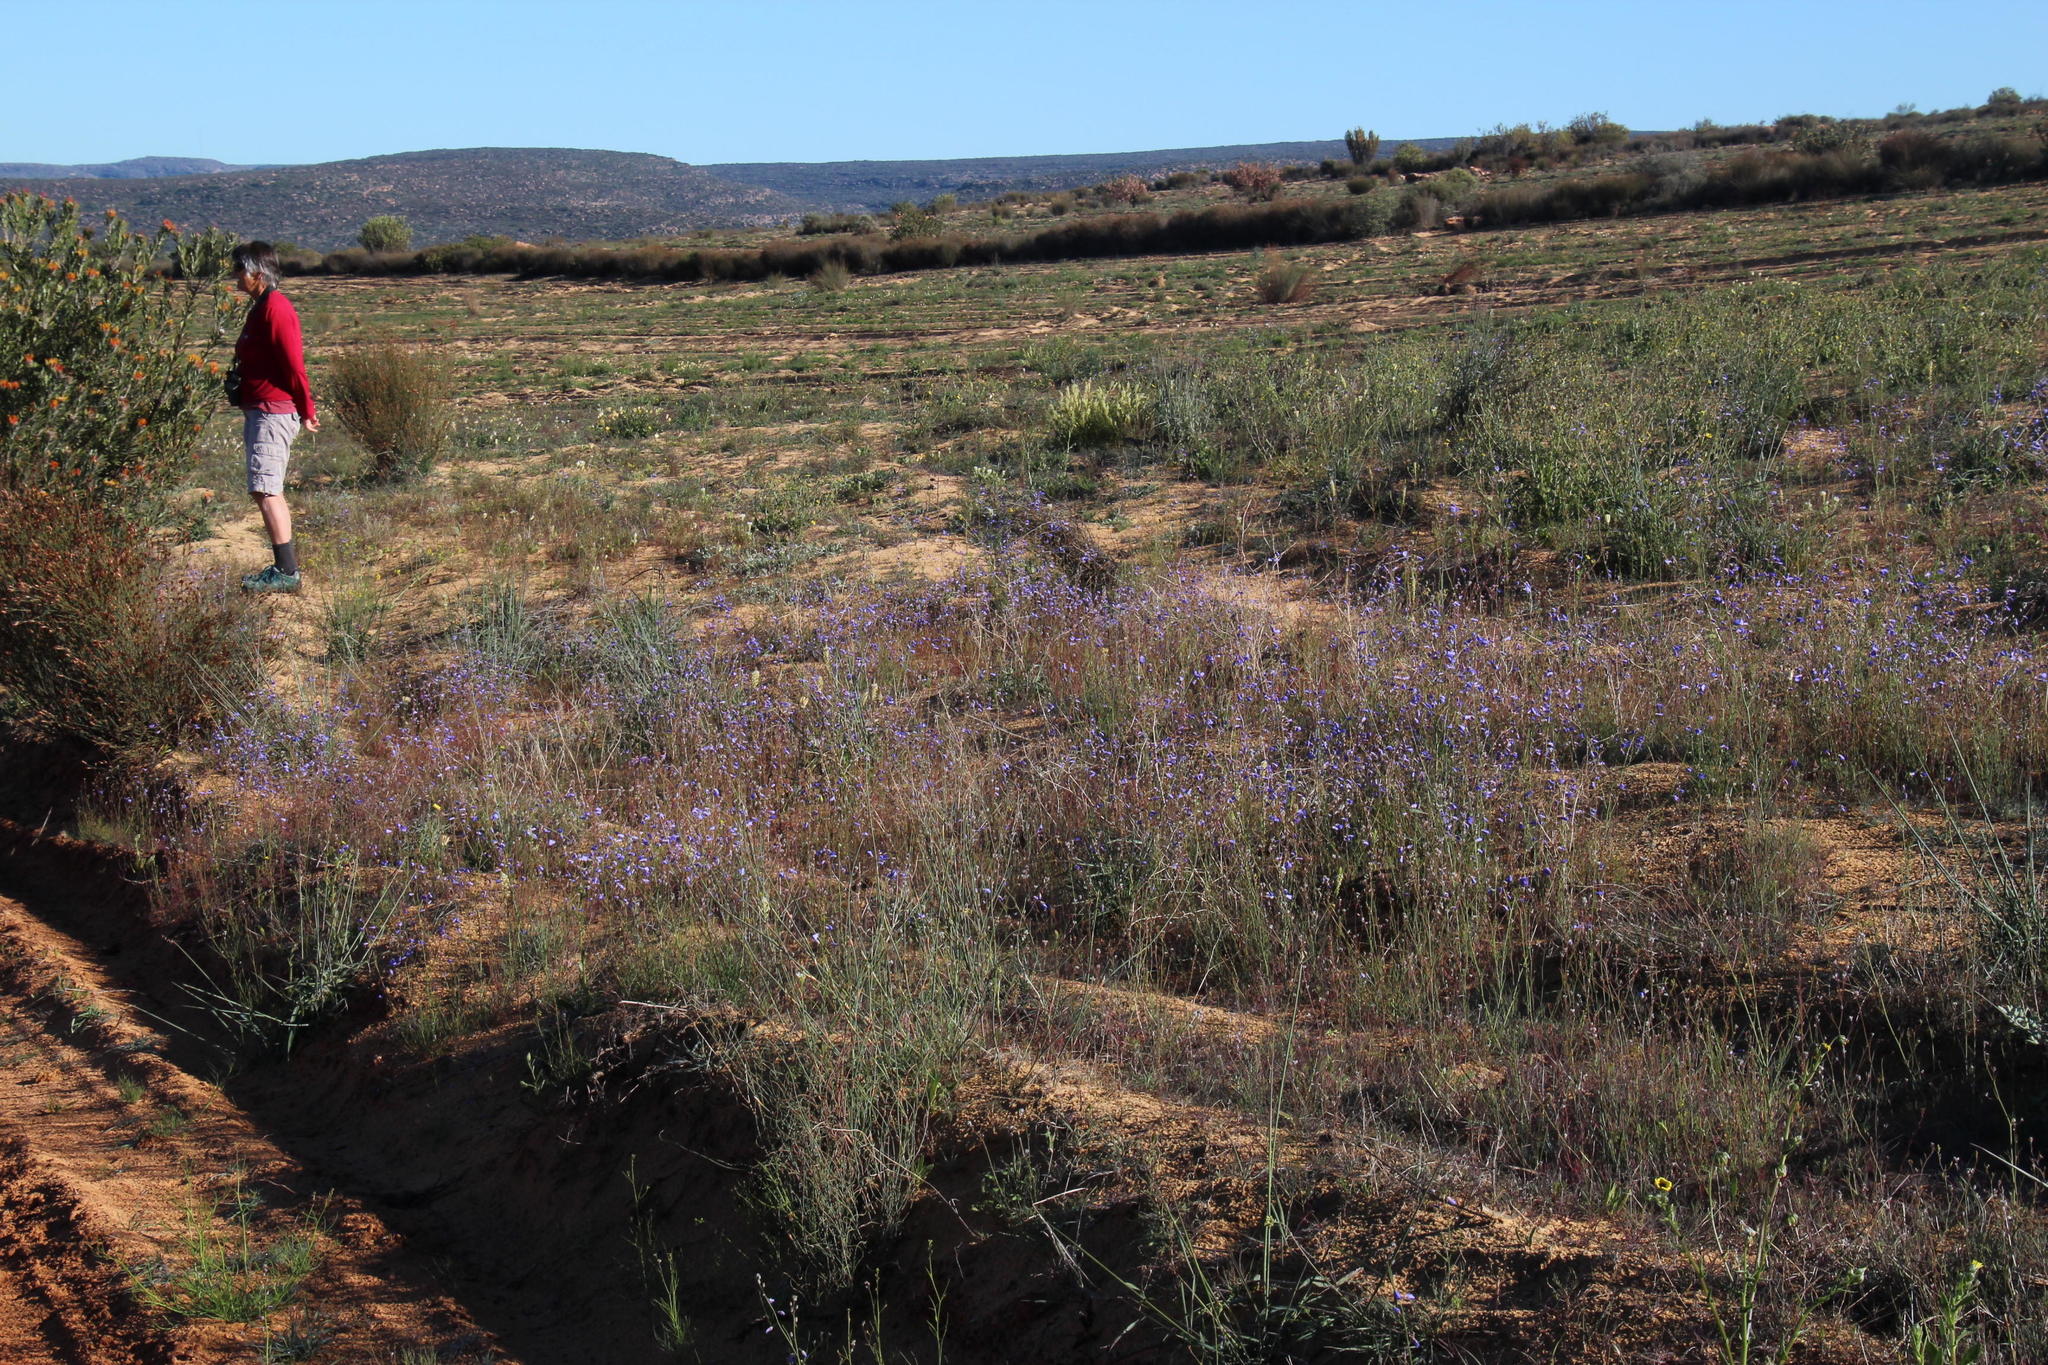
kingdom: Plantae
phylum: Tracheophyta
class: Magnoliopsida
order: Brassicales
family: Brassicaceae
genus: Heliophila
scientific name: Heliophila arenaria
